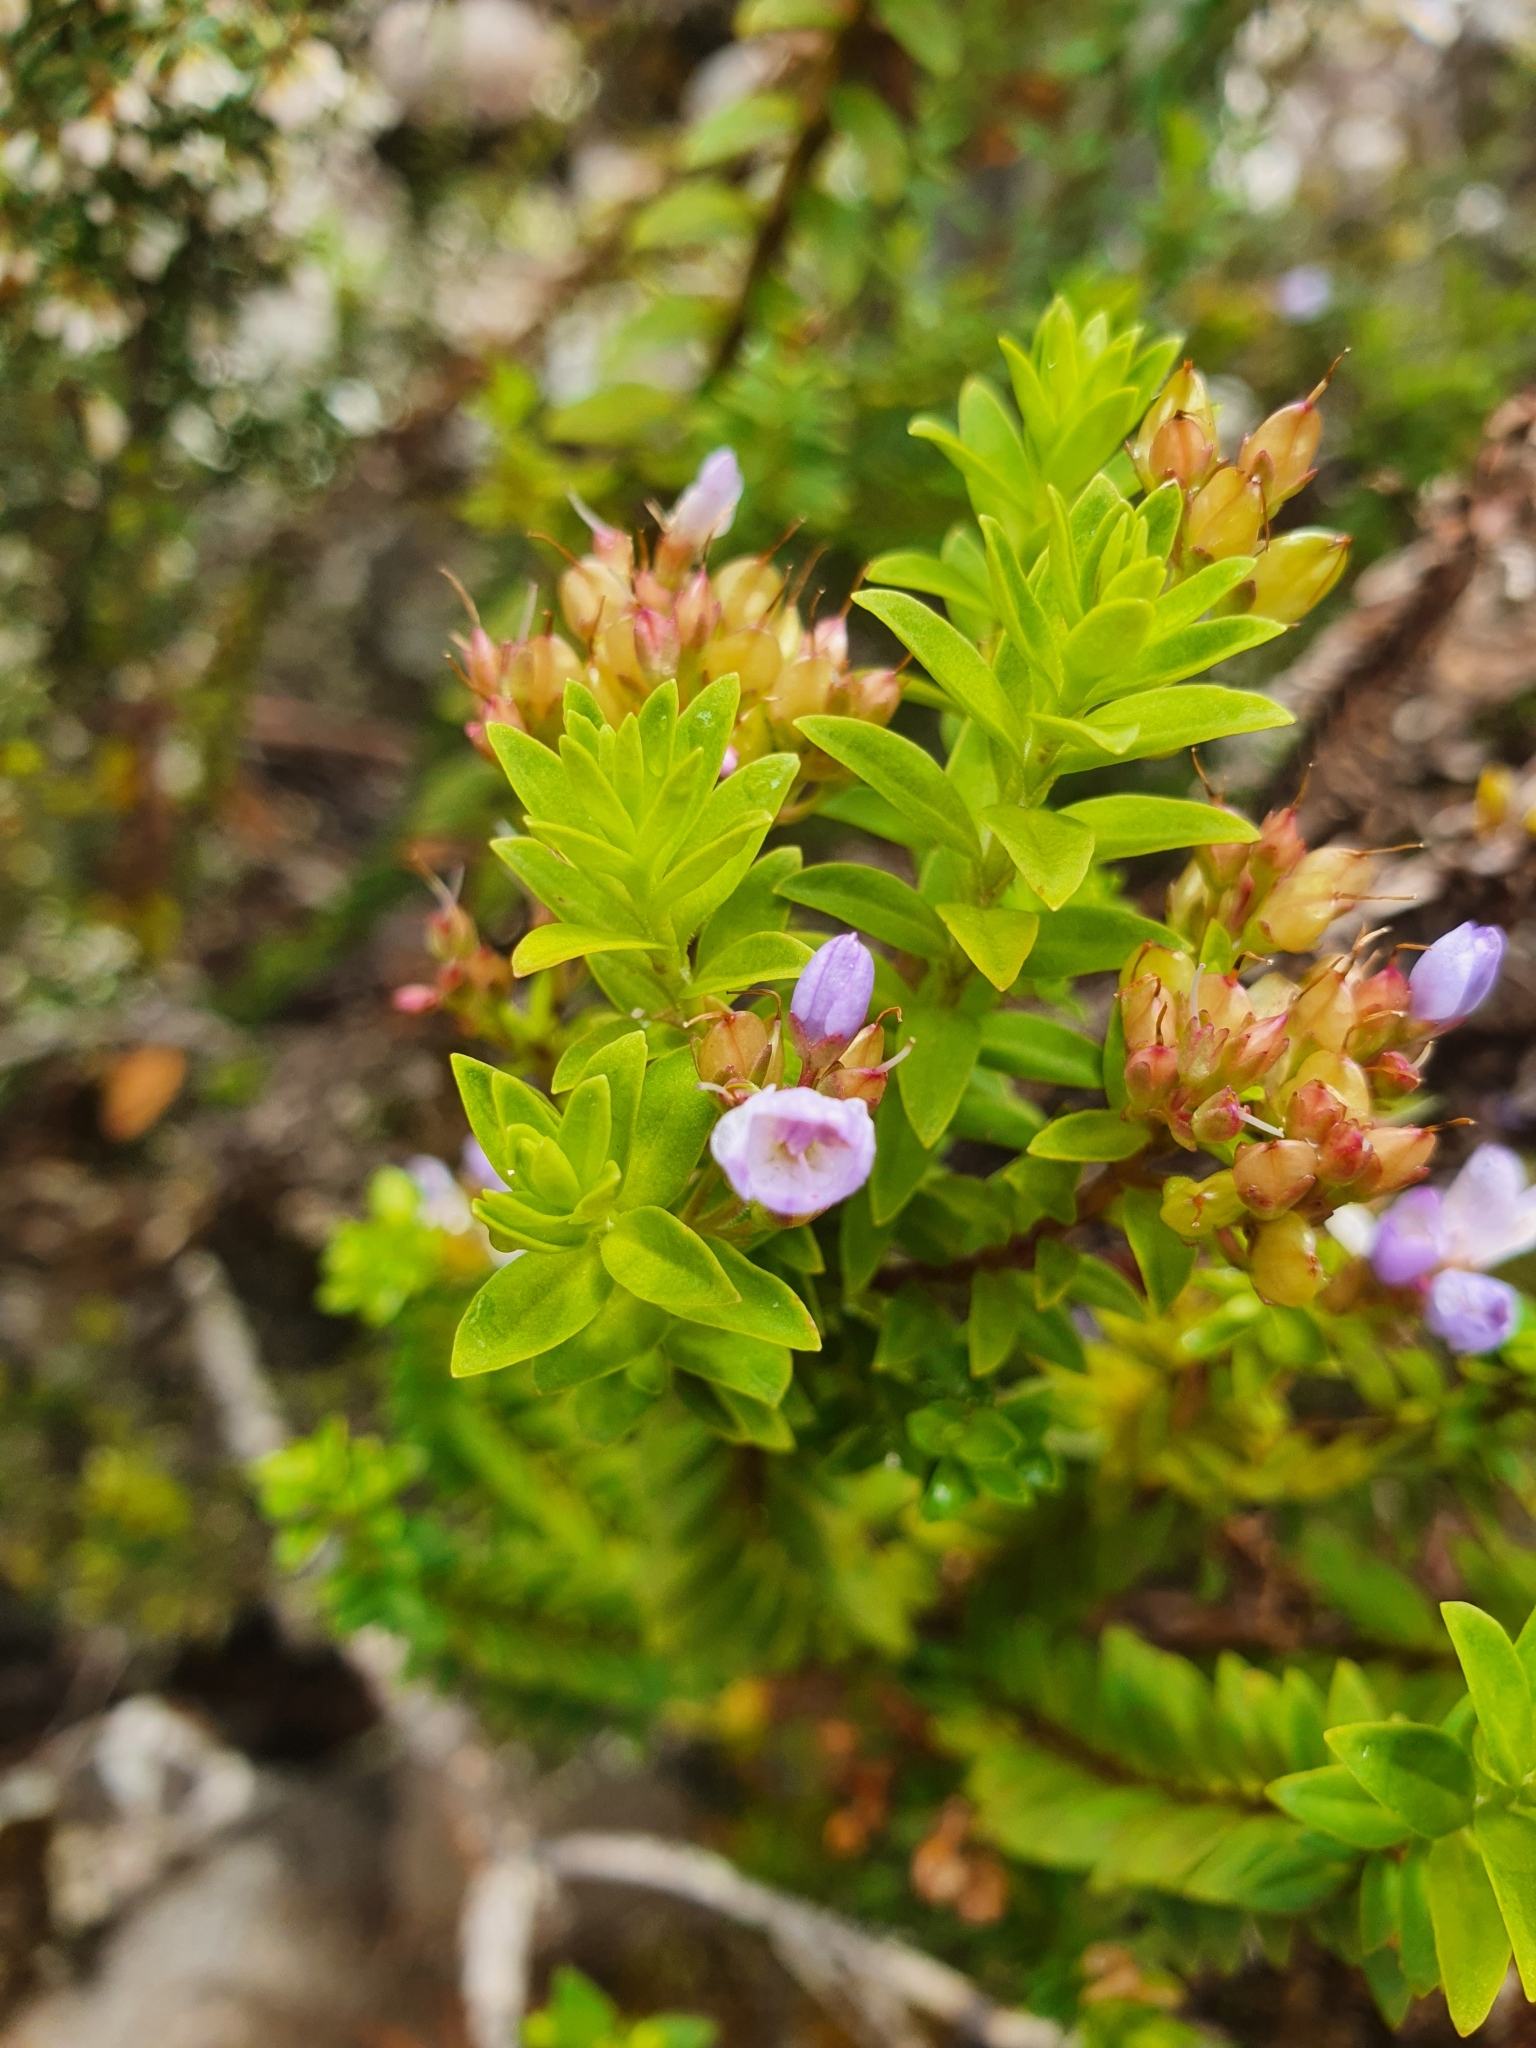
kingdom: Plantae
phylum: Tracheophyta
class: Magnoliopsida
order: Lamiales
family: Plantaginaceae
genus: Veronica
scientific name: Veronica formosa
